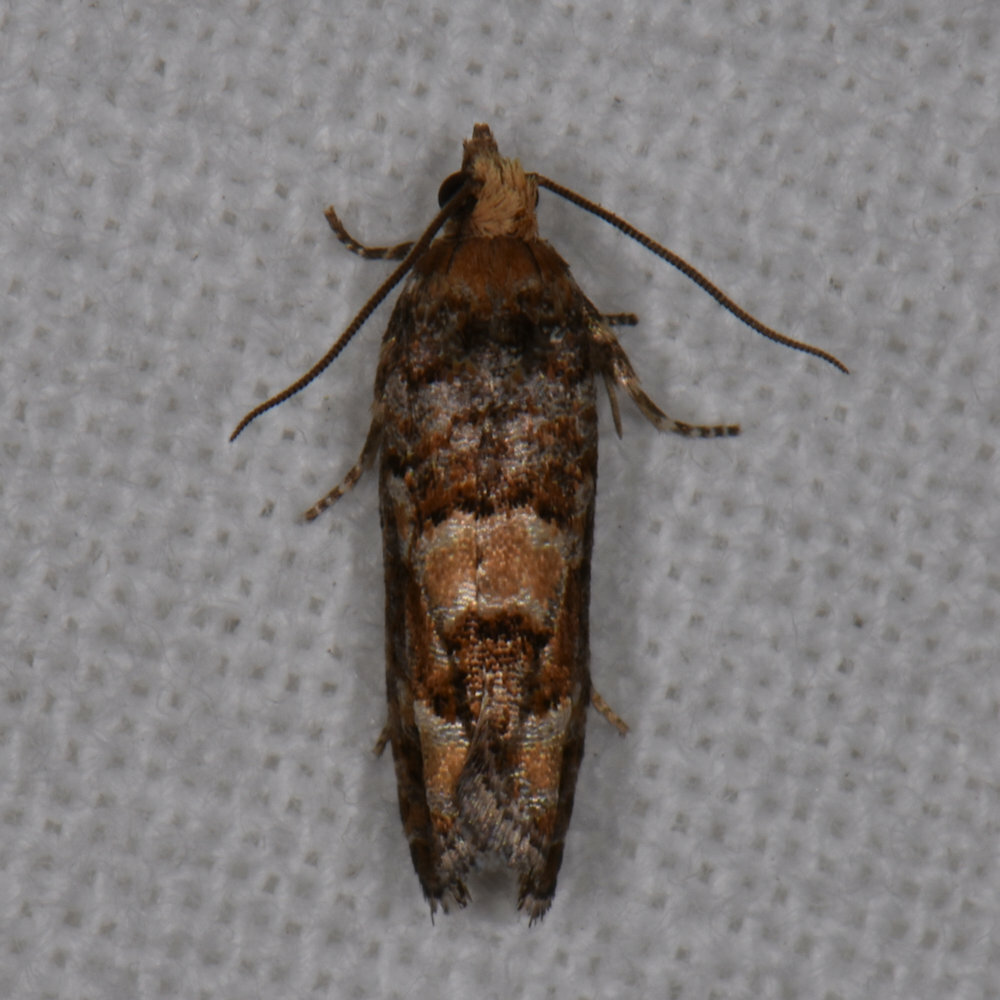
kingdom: Animalia
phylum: Arthropoda
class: Insecta
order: Lepidoptera
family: Tortricidae
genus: Eucopina
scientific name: Eucopina tocullionana
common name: White pinecone borer moth
